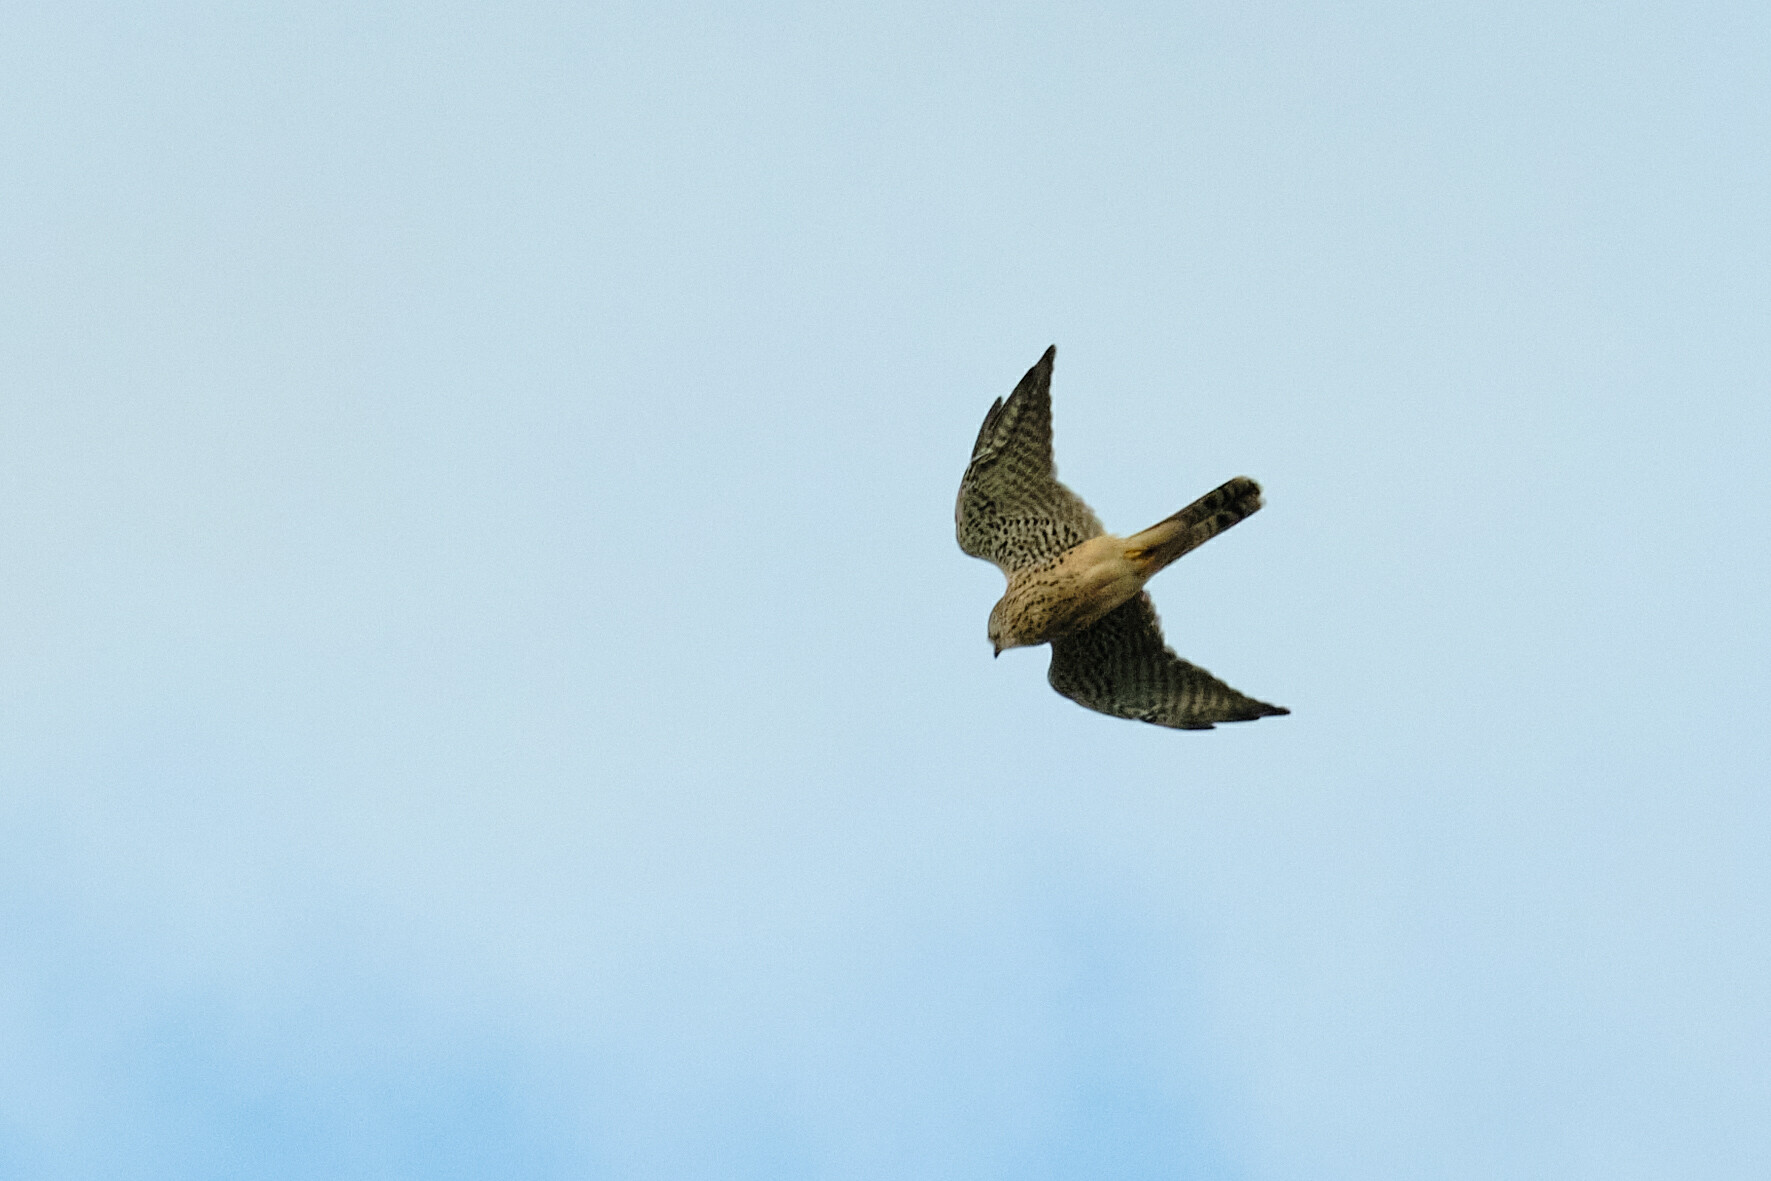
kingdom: Animalia
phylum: Chordata
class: Aves
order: Falconiformes
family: Falconidae
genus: Falco
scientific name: Falco tinnunculus
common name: Common kestrel
